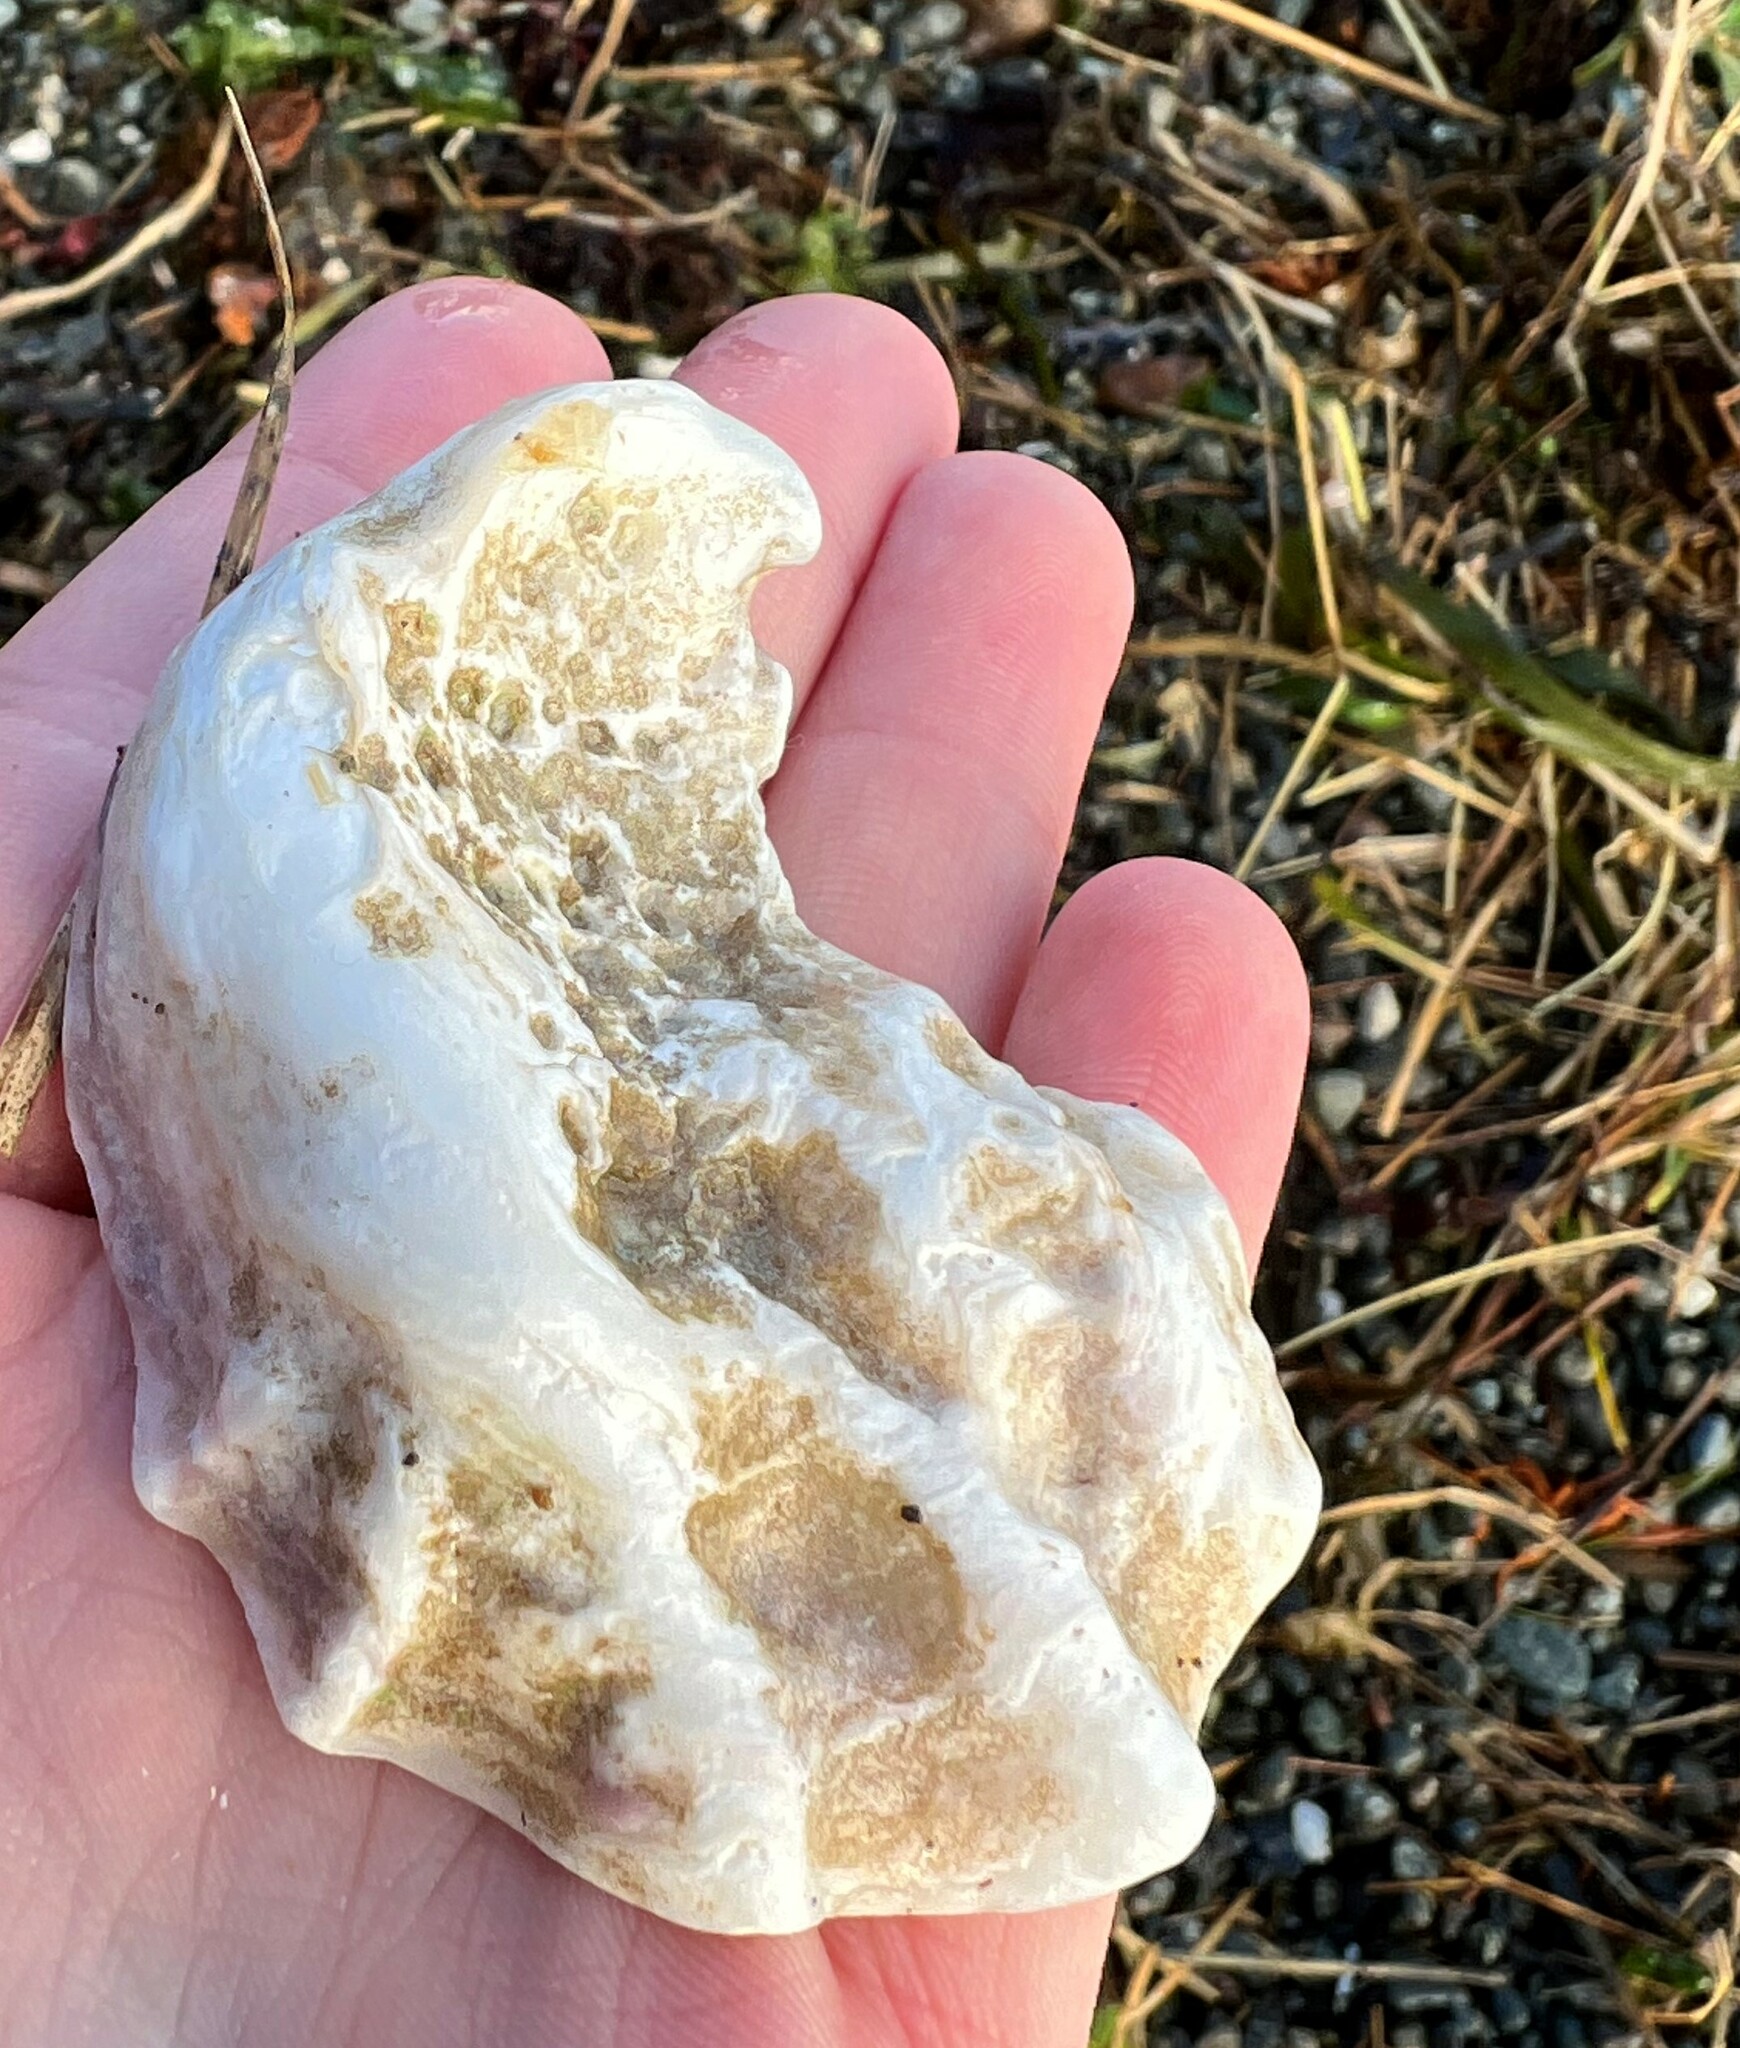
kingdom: Animalia
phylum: Mollusca
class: Bivalvia
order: Ostreida
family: Ostreidae
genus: Magallana
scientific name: Magallana gigas
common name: Pacific oyster
